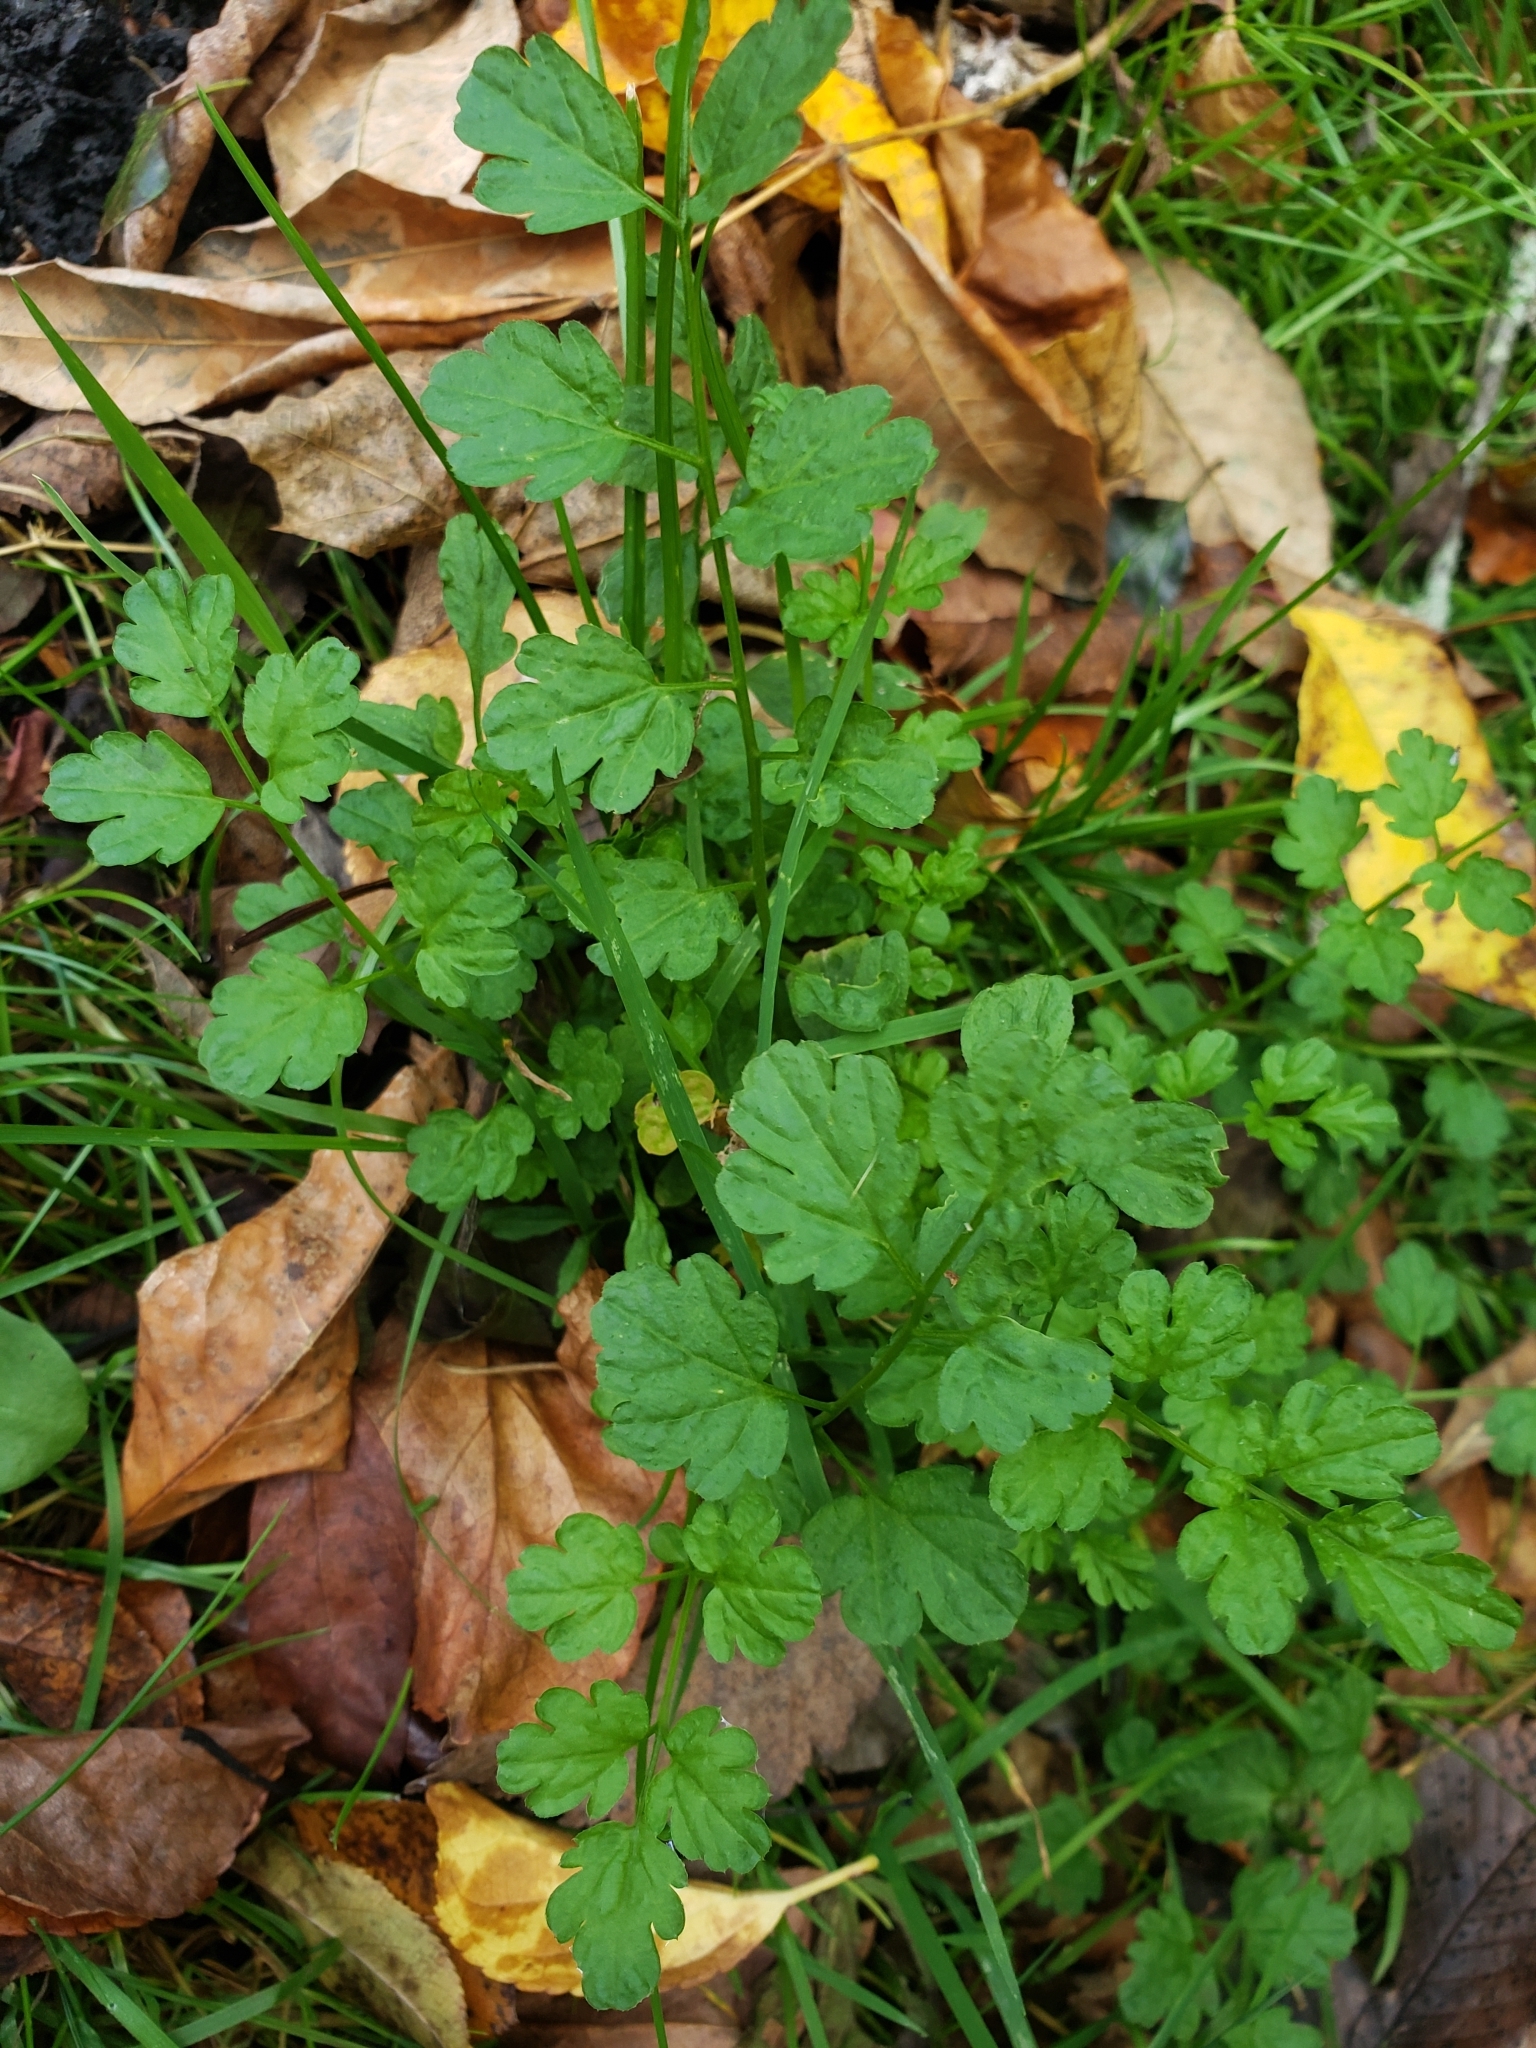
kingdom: Plantae
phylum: Tracheophyta
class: Magnoliopsida
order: Brassicales
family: Brassicaceae
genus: Cardamine
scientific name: Cardamine impatiens
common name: Narrow-leaved bitter-cress
